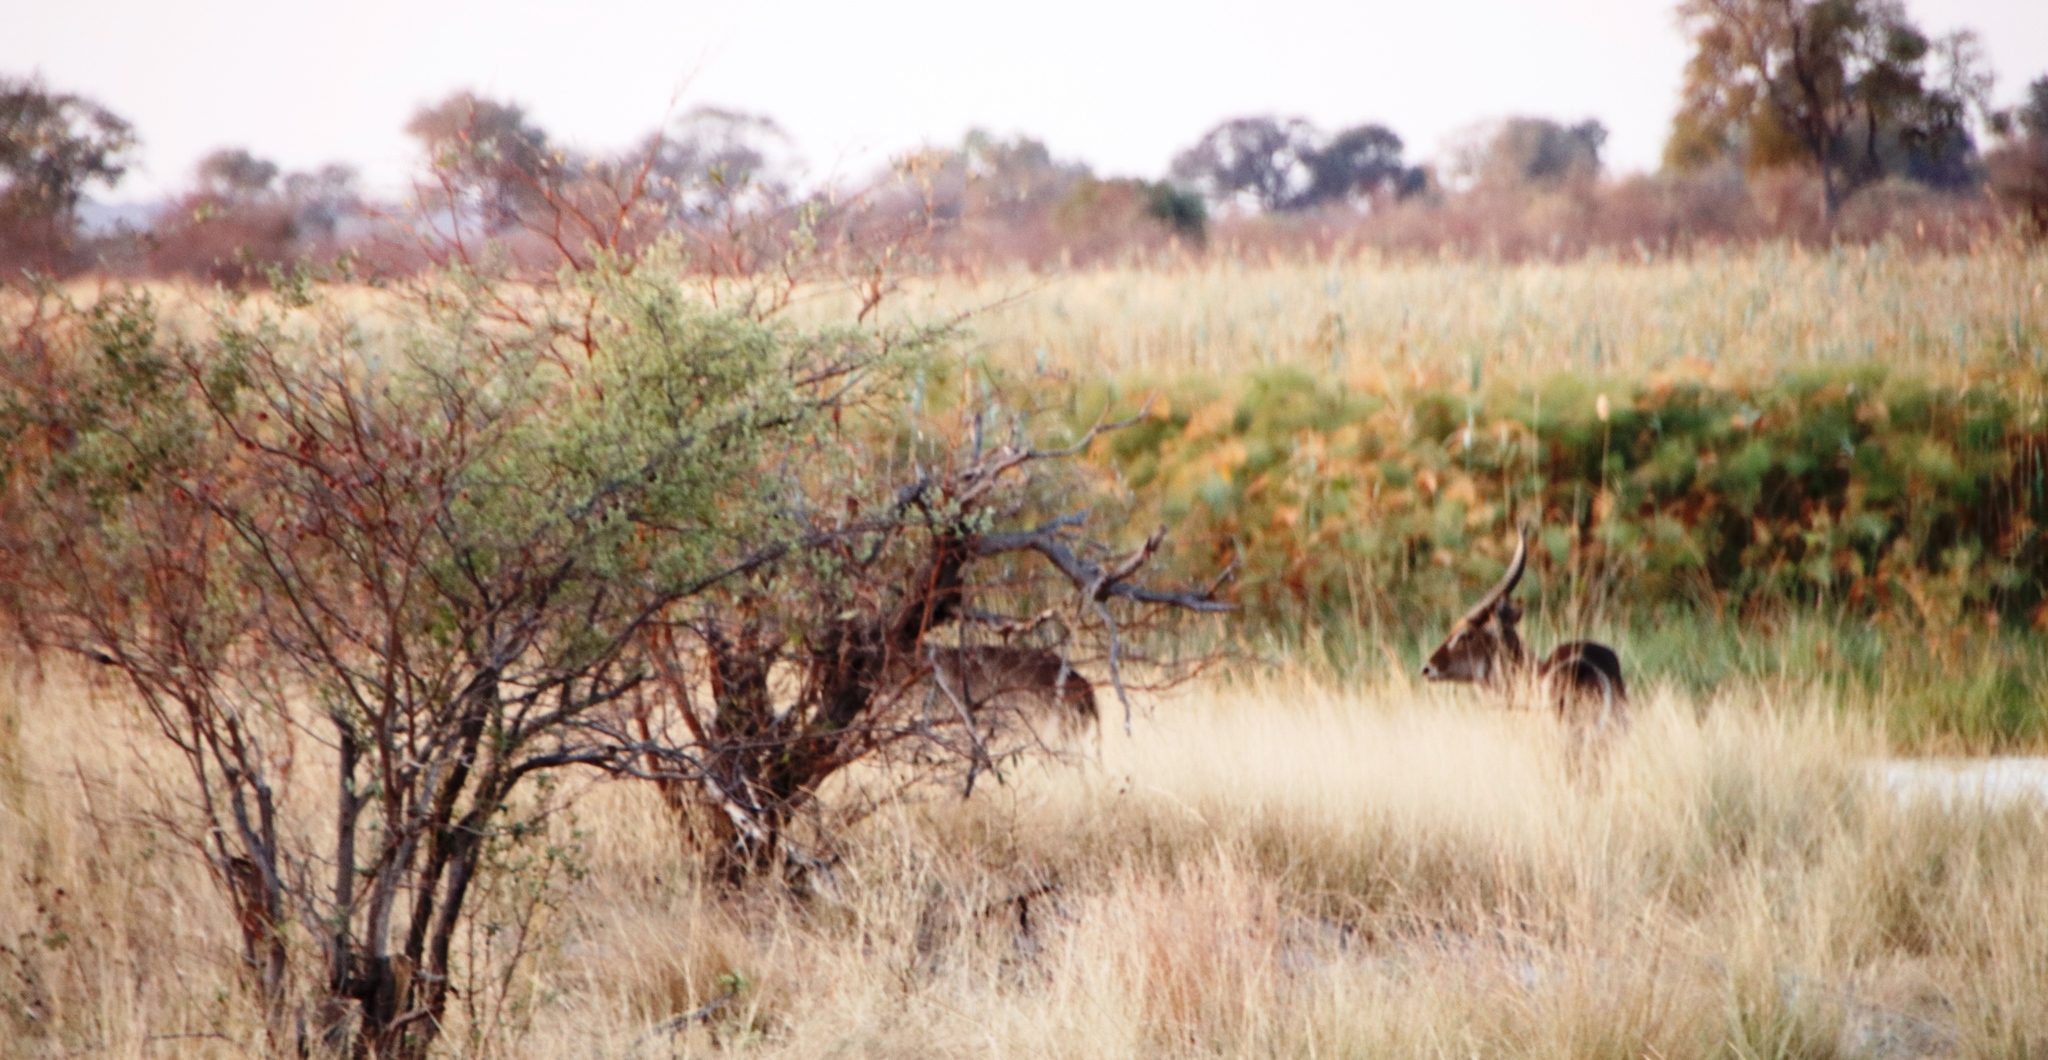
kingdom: Animalia
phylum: Chordata
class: Mammalia
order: Artiodactyla
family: Bovidae
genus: Kobus
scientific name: Kobus ellipsiprymnus
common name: Waterbuck
